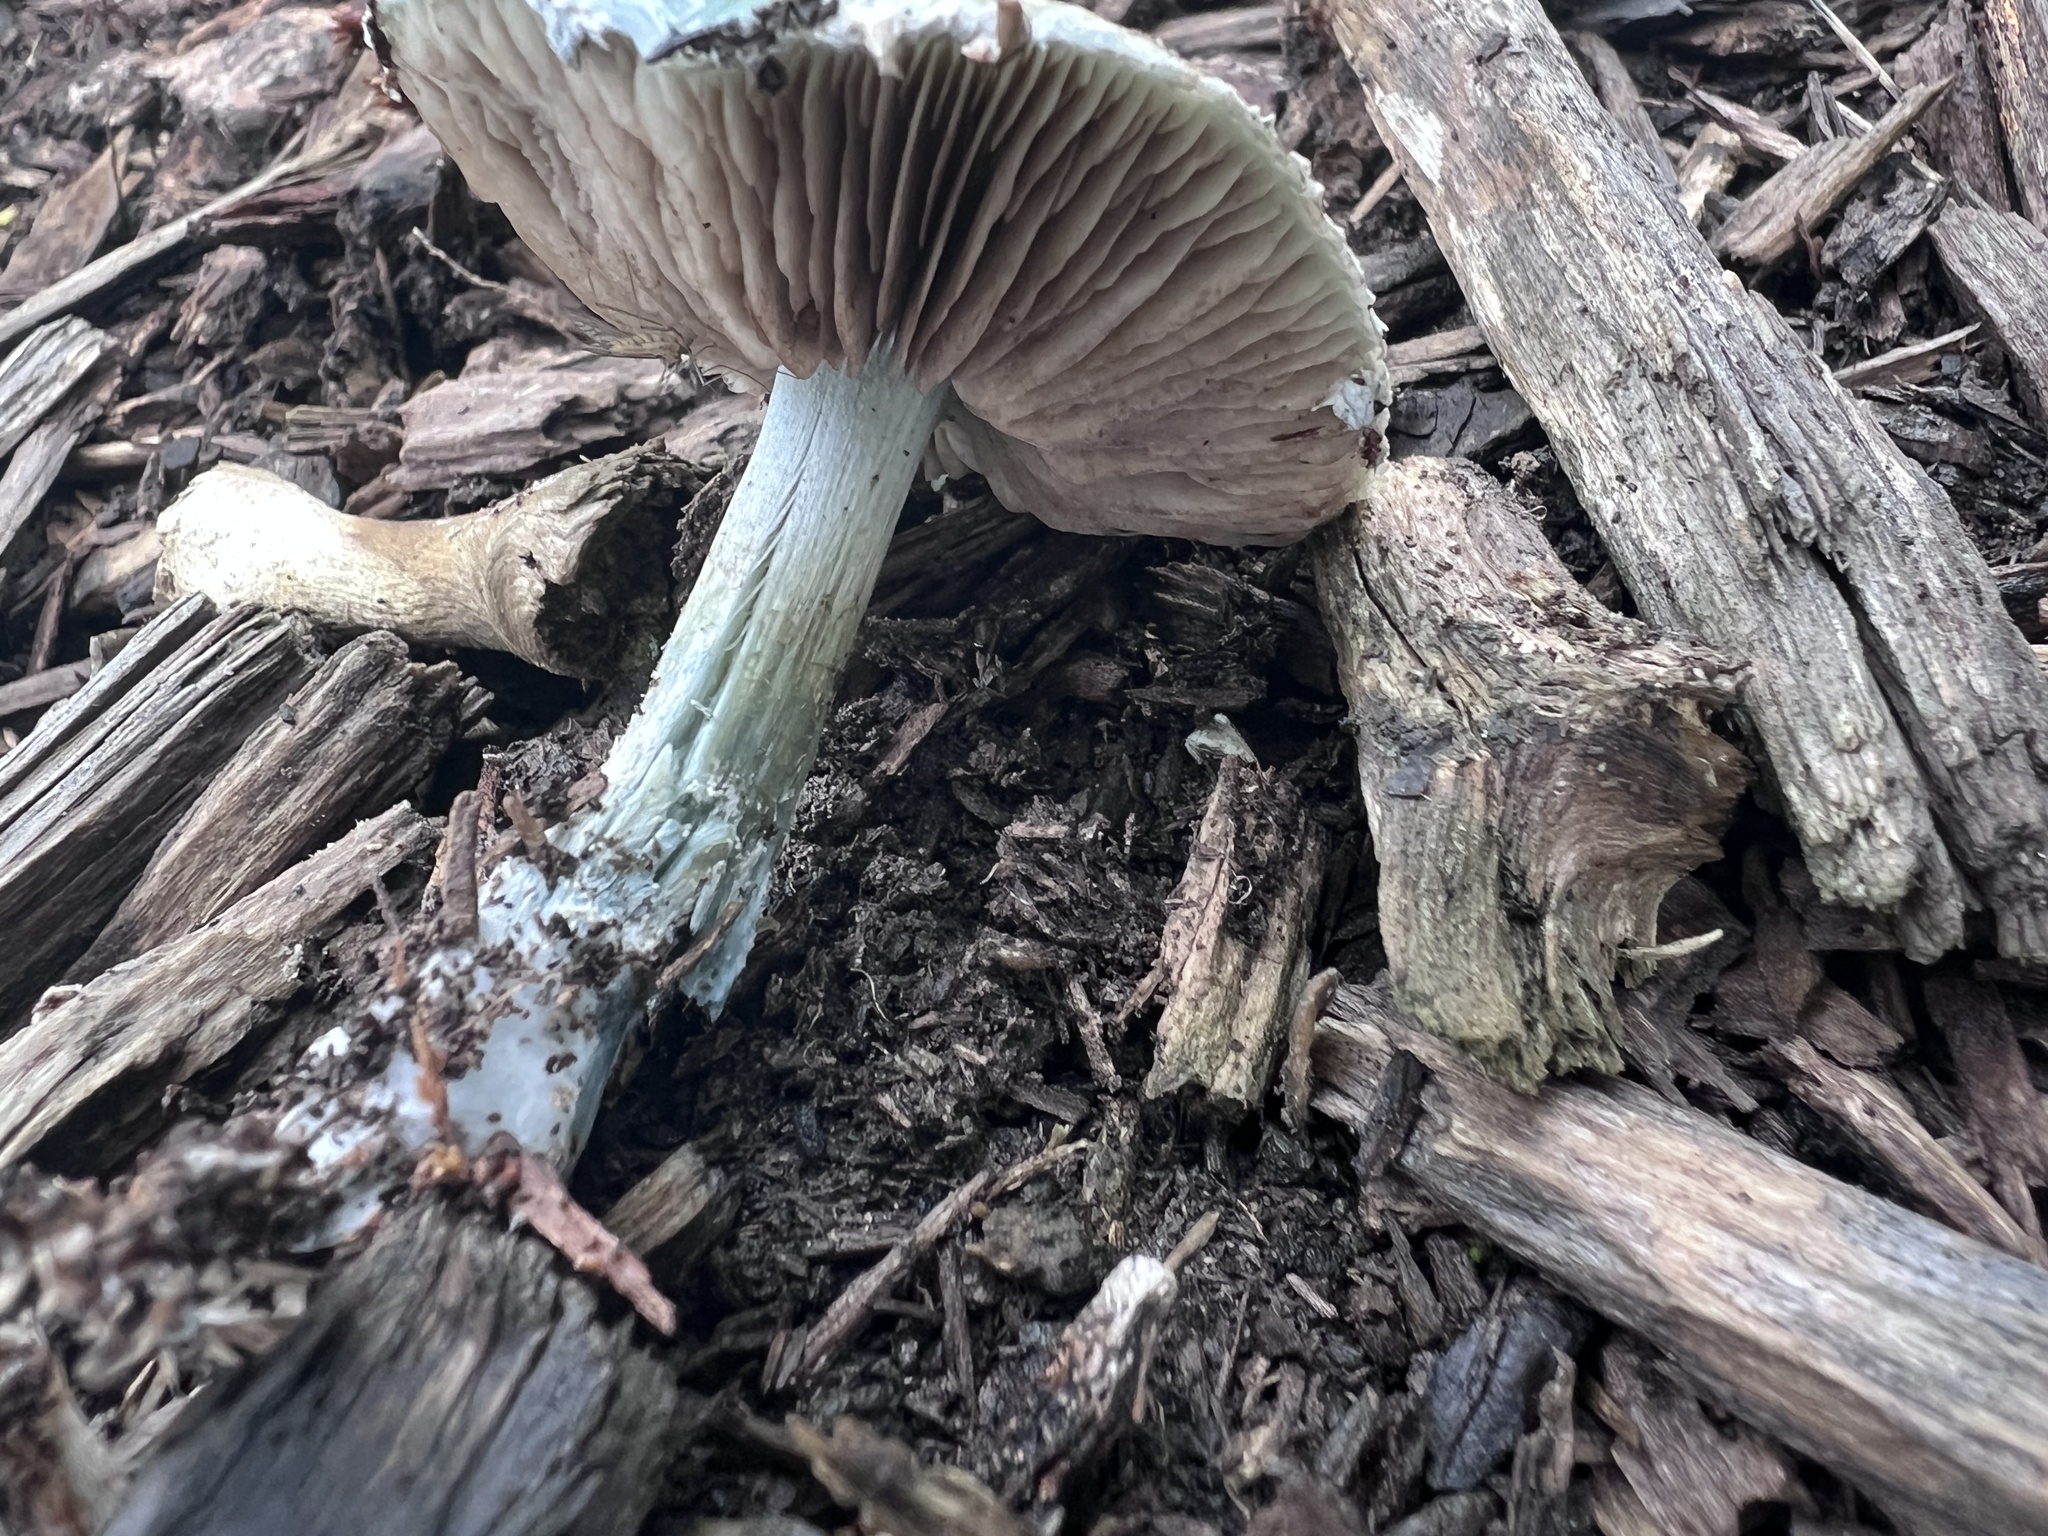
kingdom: Fungi
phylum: Basidiomycota
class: Agaricomycetes
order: Agaricales
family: Strophariaceae
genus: Stropharia
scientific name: Stropharia caerulea
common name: Blue roundhead
